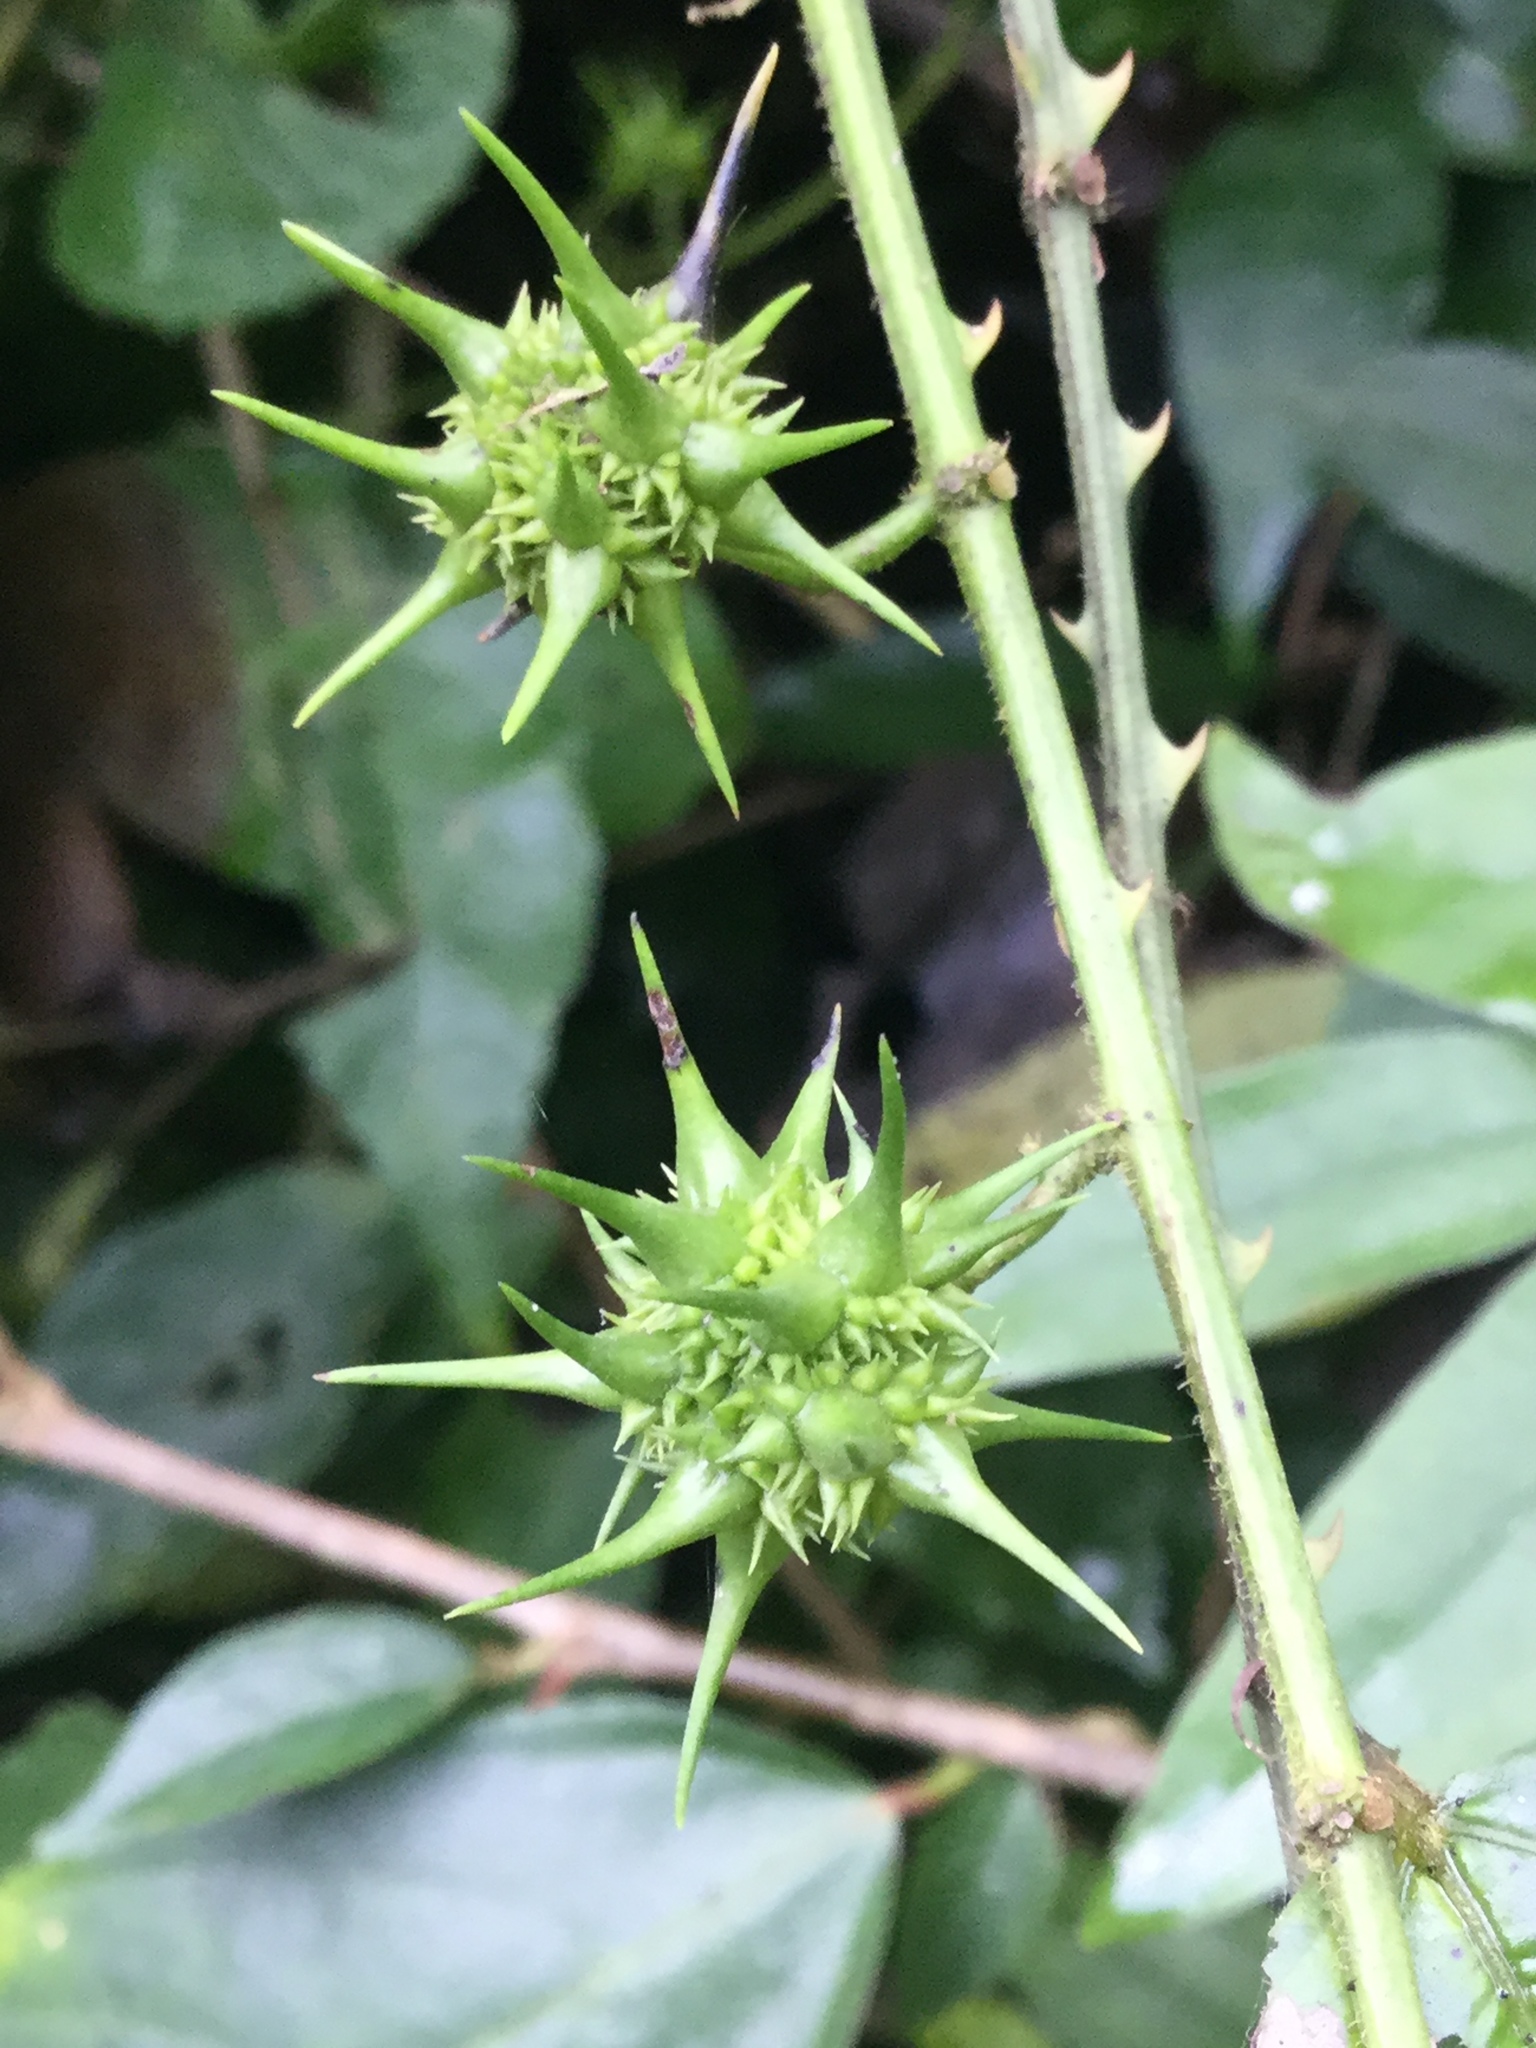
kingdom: Plantae
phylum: Tracheophyta
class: Magnoliopsida
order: Malvales
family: Malvaceae
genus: Byttneria
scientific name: Byttneria aculeata
